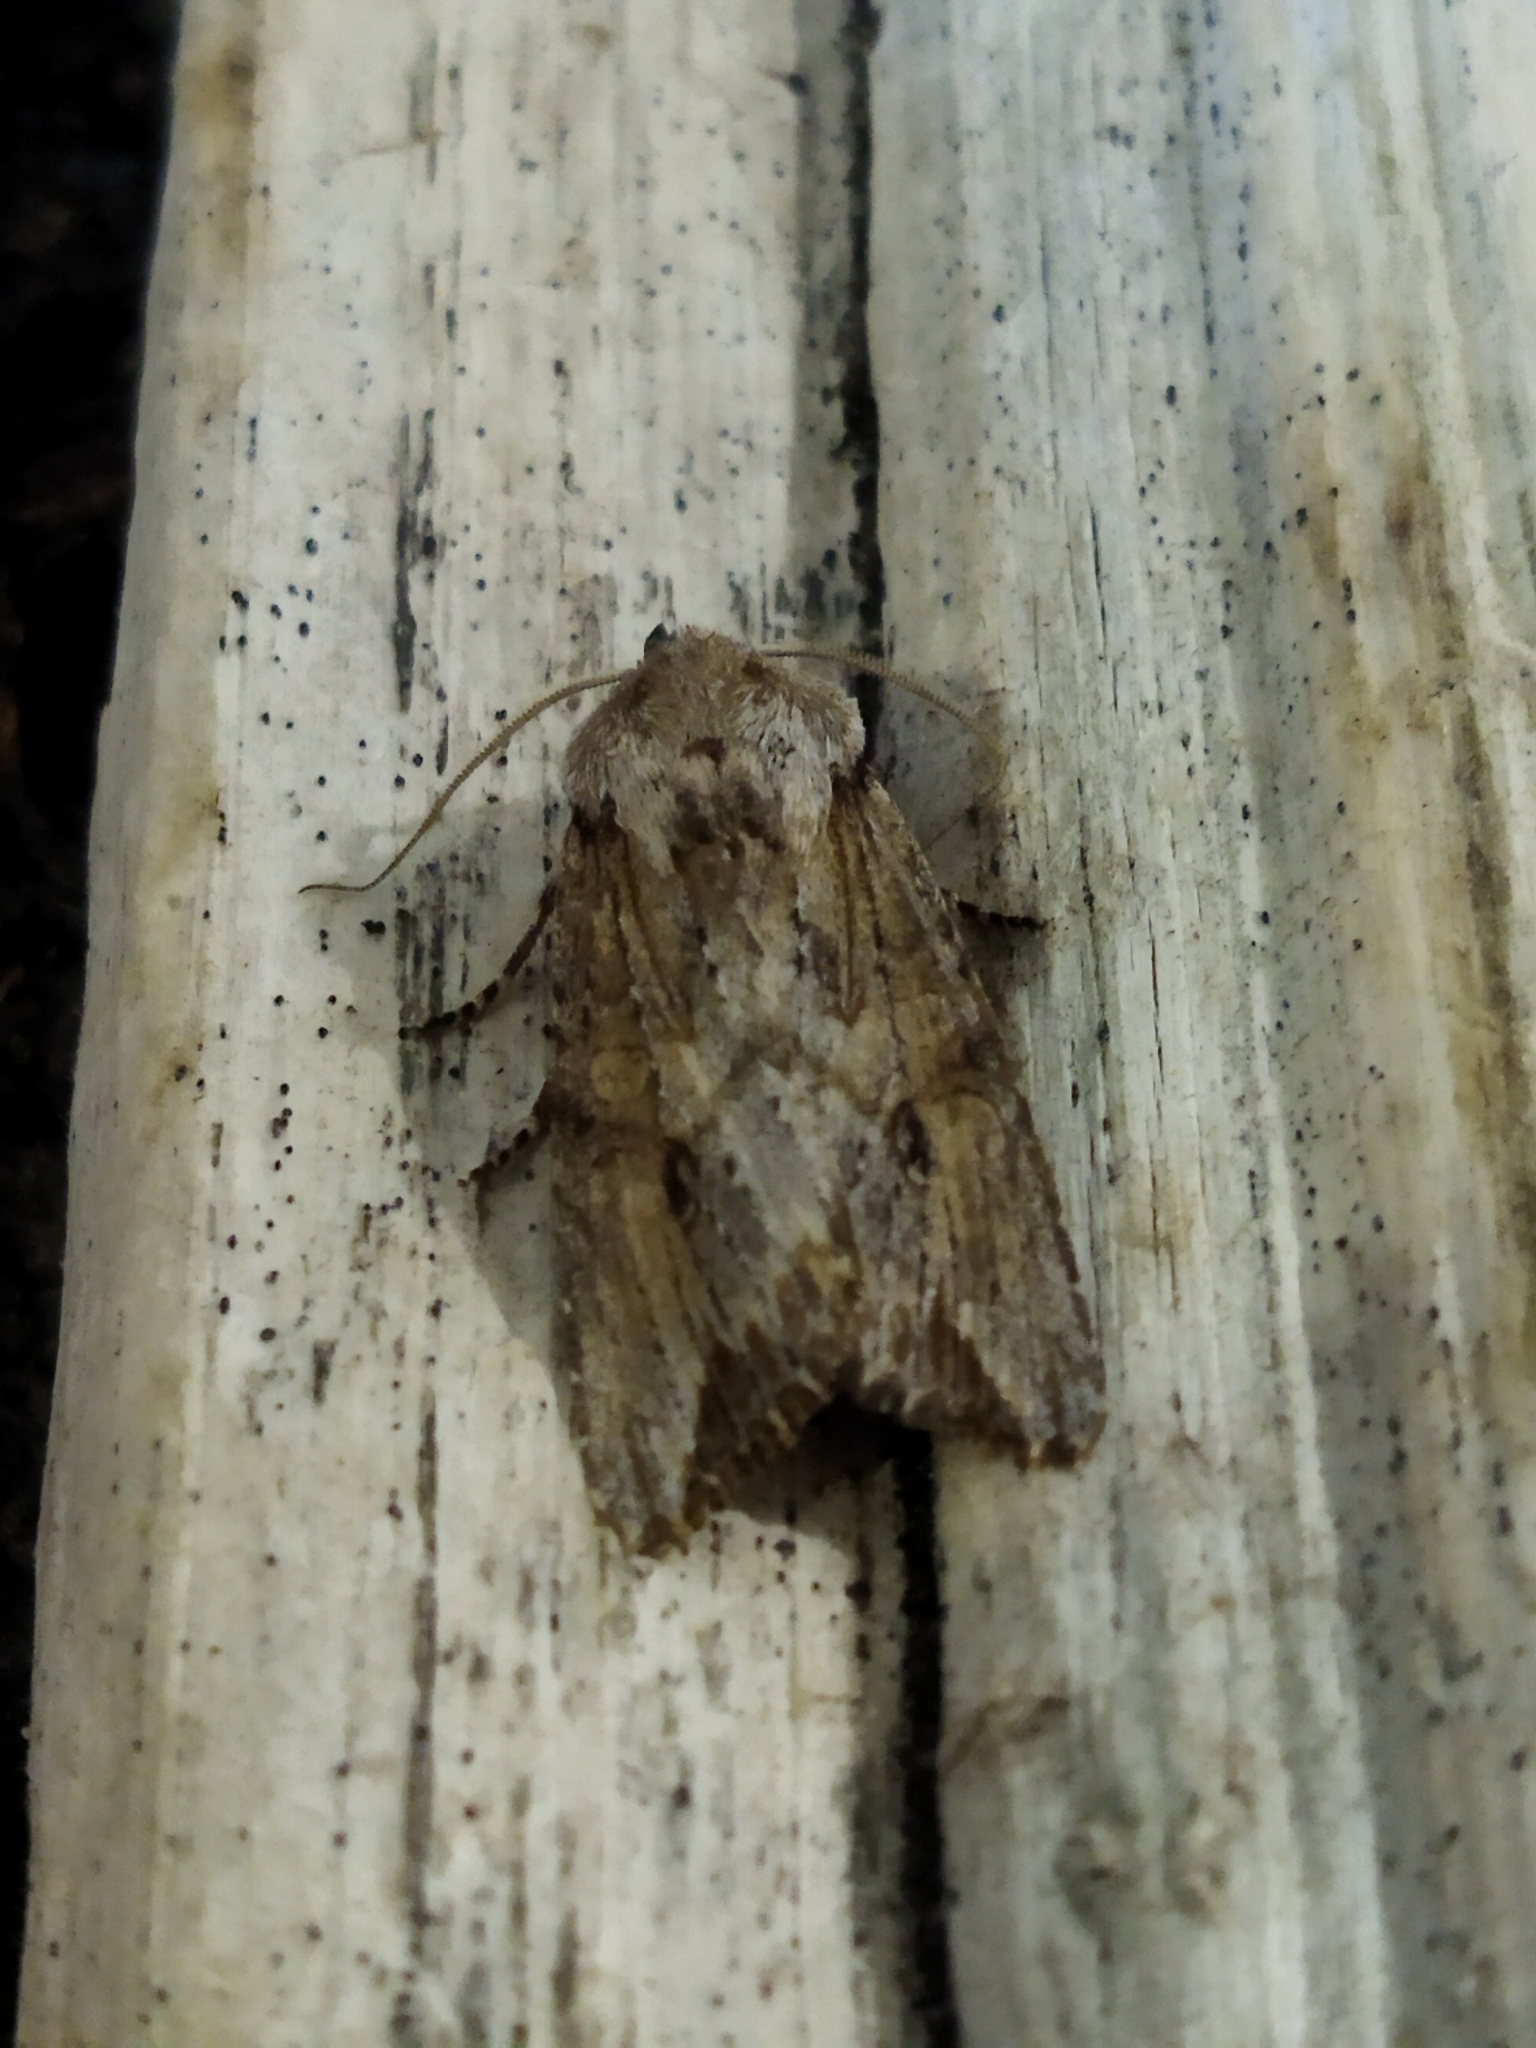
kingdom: Animalia
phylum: Arthropoda
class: Insecta
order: Lepidoptera
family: Noctuidae
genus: Egira
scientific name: Egira
